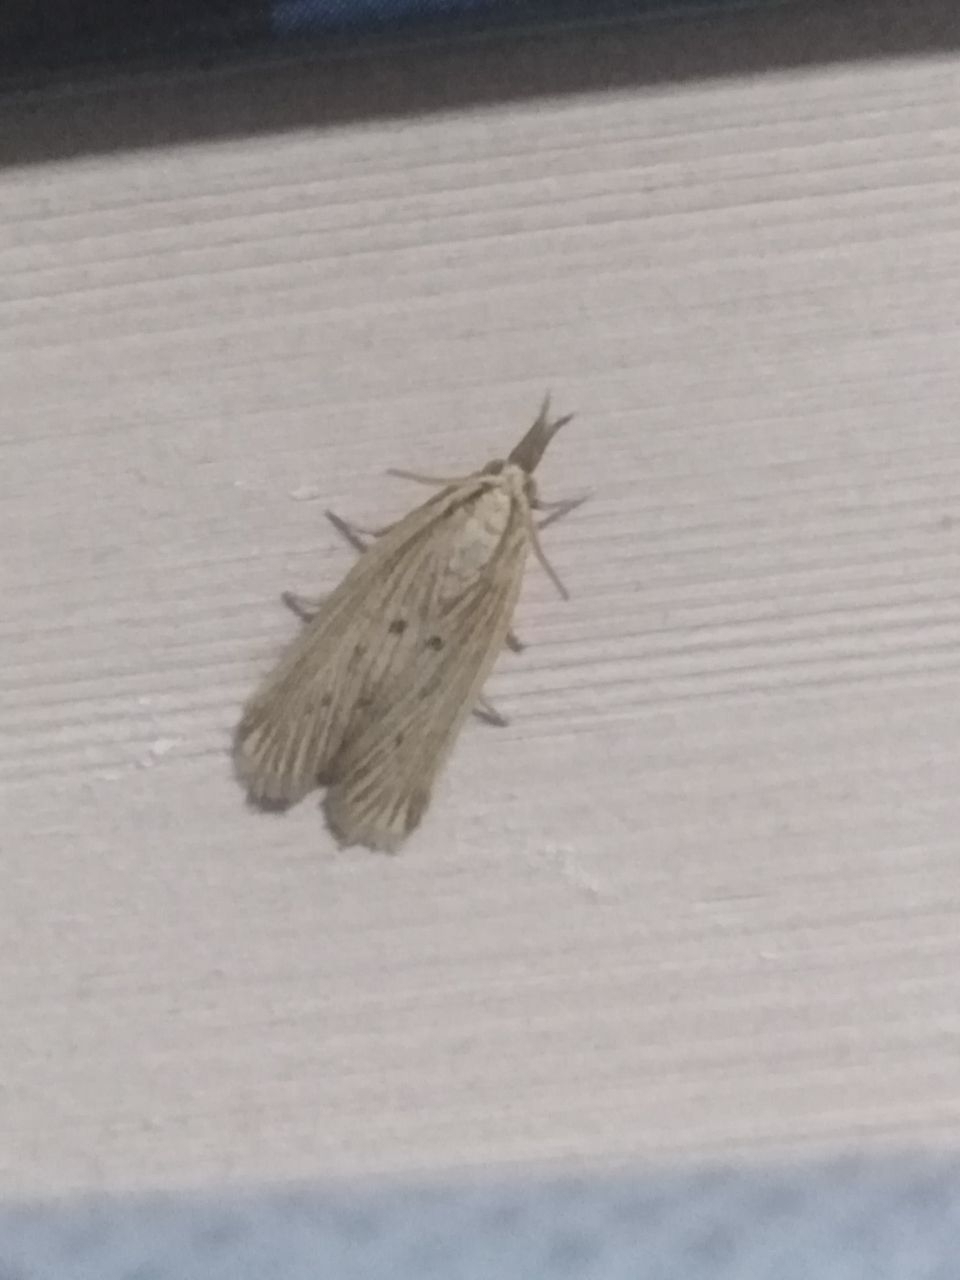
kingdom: Animalia
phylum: Arthropoda
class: Insecta
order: Lepidoptera
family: Pyralidae
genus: Ematheudes
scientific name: Ematheudes punctellus
